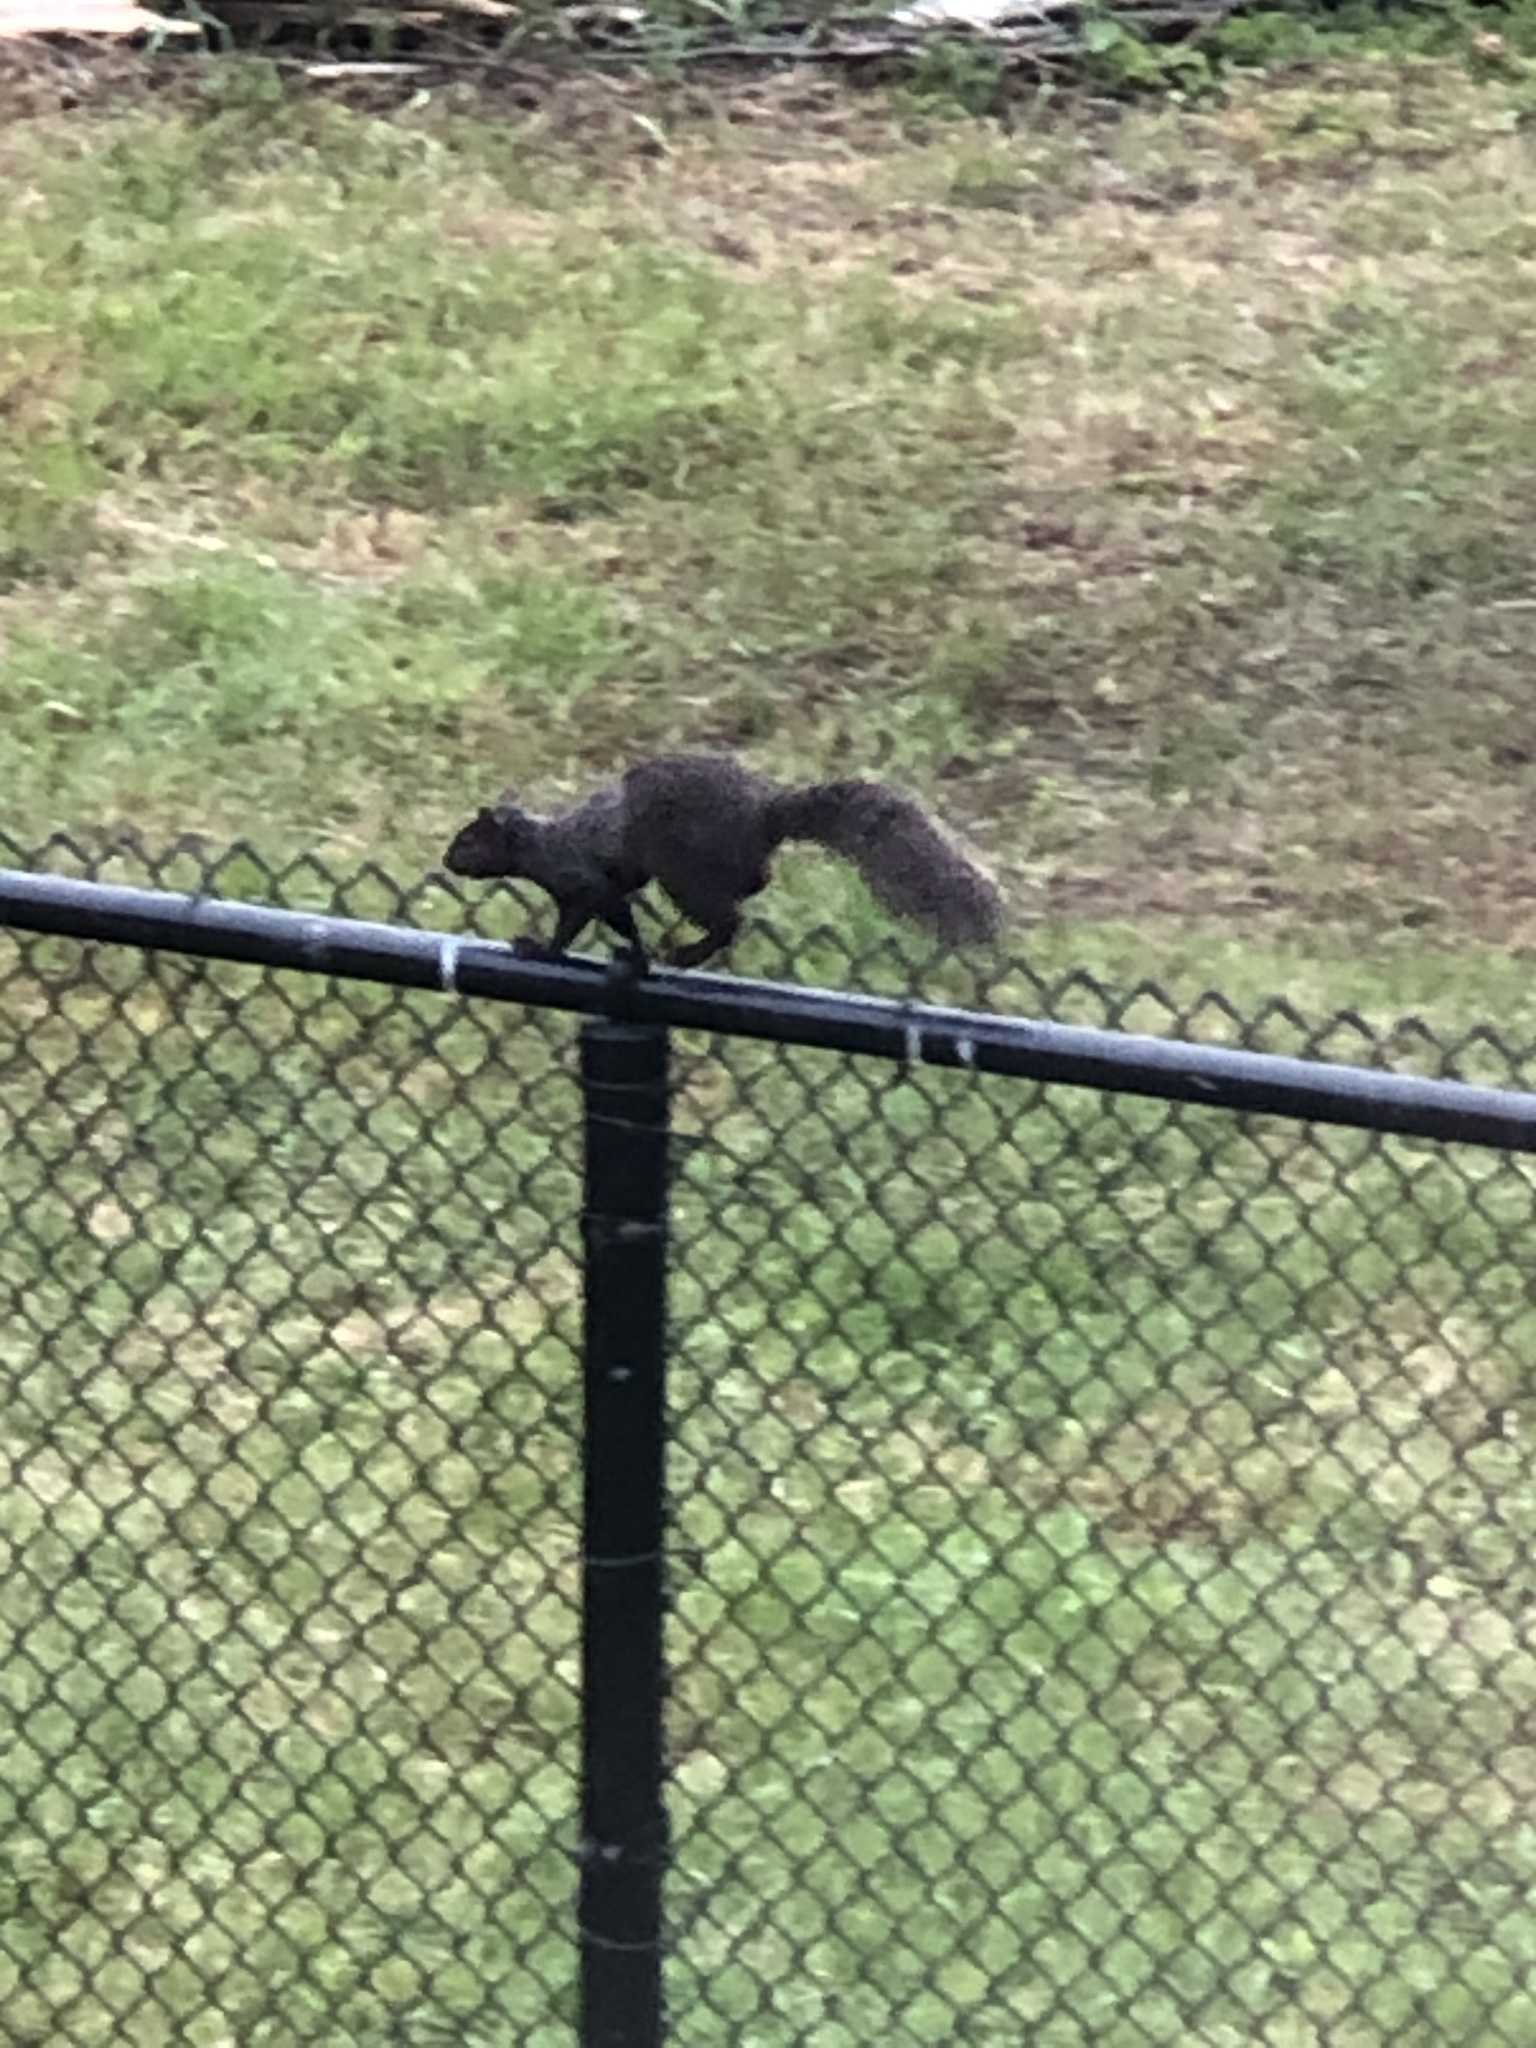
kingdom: Animalia
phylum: Chordata
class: Mammalia
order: Rodentia
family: Sciuridae
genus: Sciurus
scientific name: Sciurus carolinensis
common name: Eastern gray squirrel
